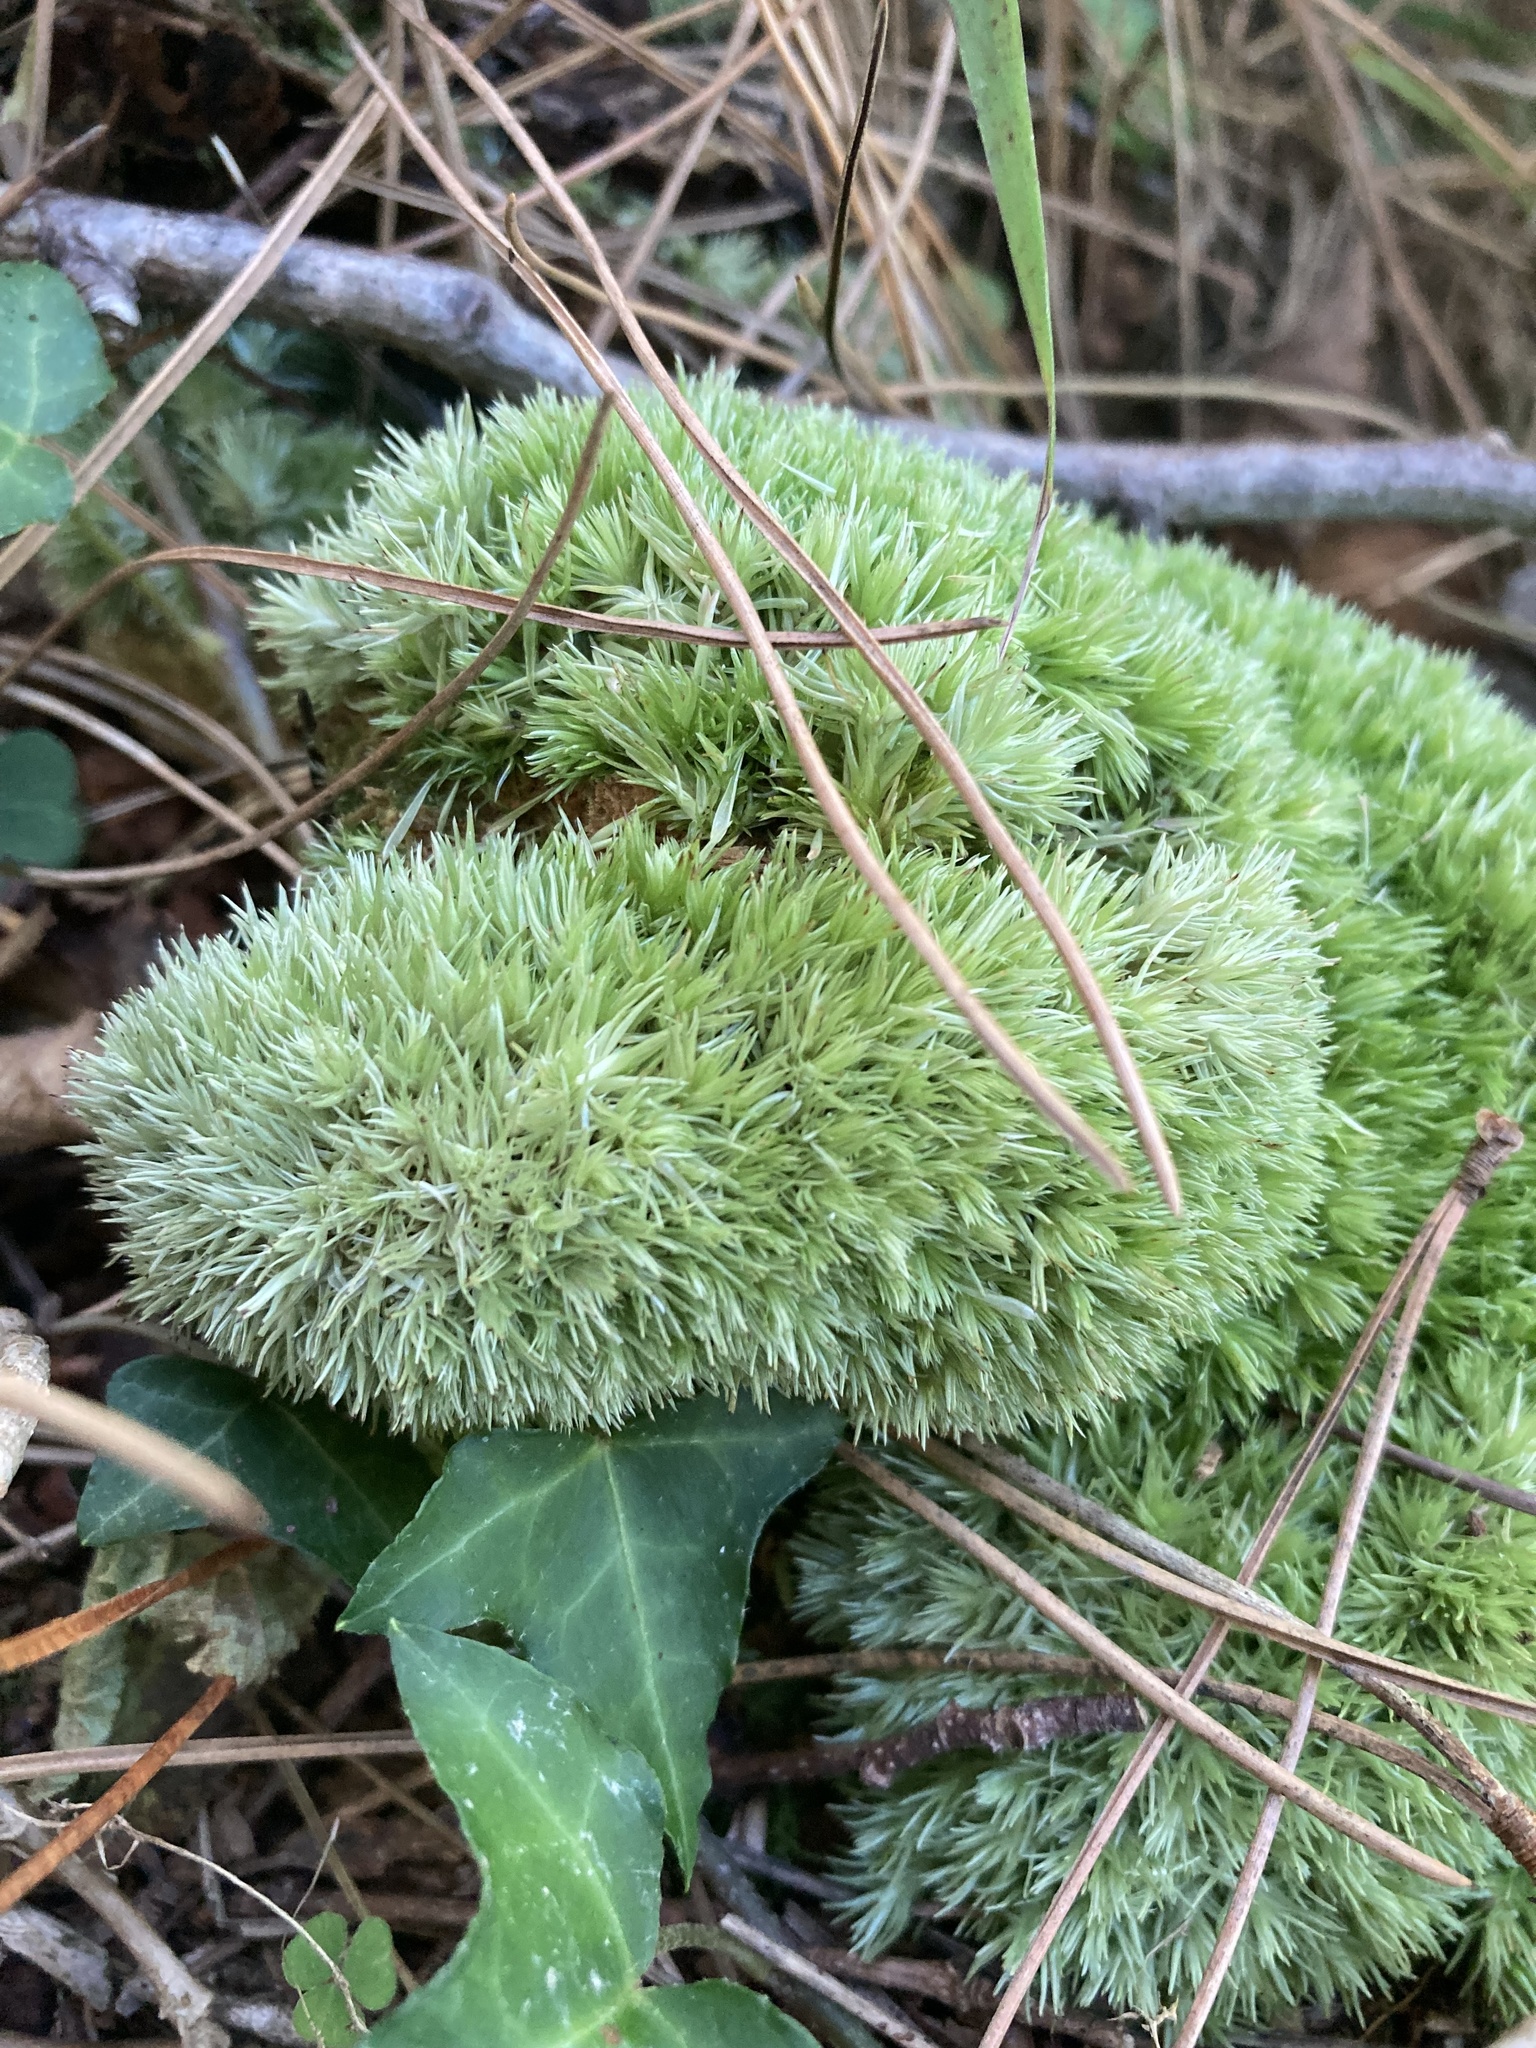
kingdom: Plantae
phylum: Bryophyta
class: Bryopsida
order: Dicranales
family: Leucobryaceae
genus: Leucobryum
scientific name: Leucobryum glaucum
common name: Large white-moss
